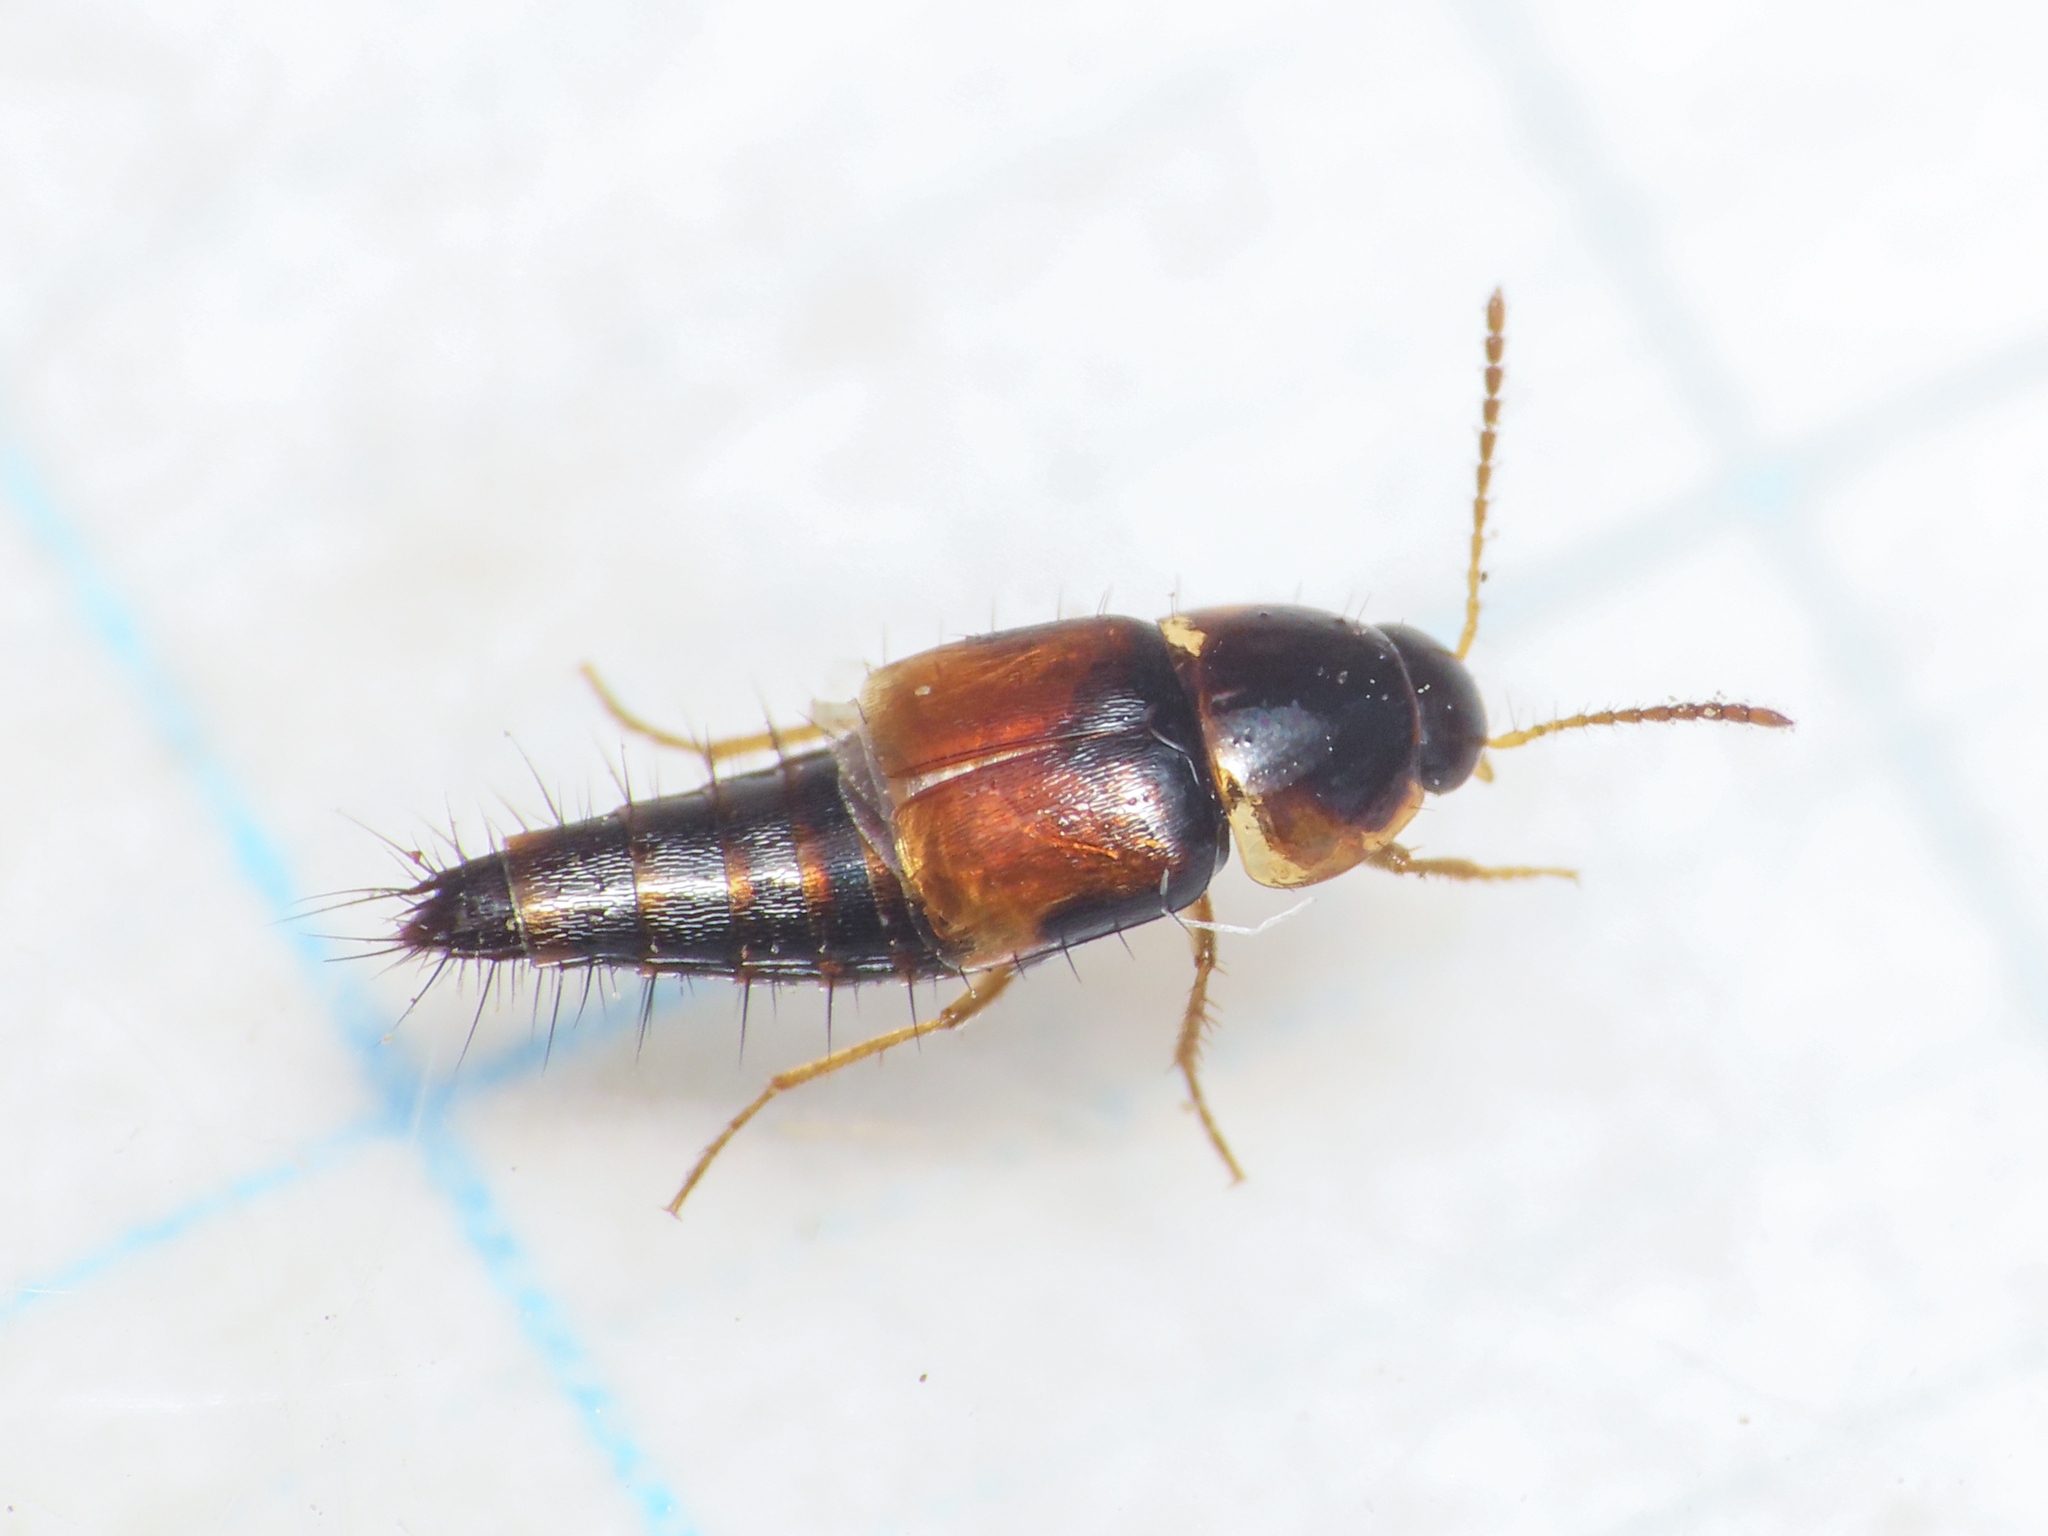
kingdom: Animalia
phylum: Arthropoda
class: Insecta
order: Coleoptera
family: Staphylinidae
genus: Tachyporus
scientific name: Tachyporus hypnorum
